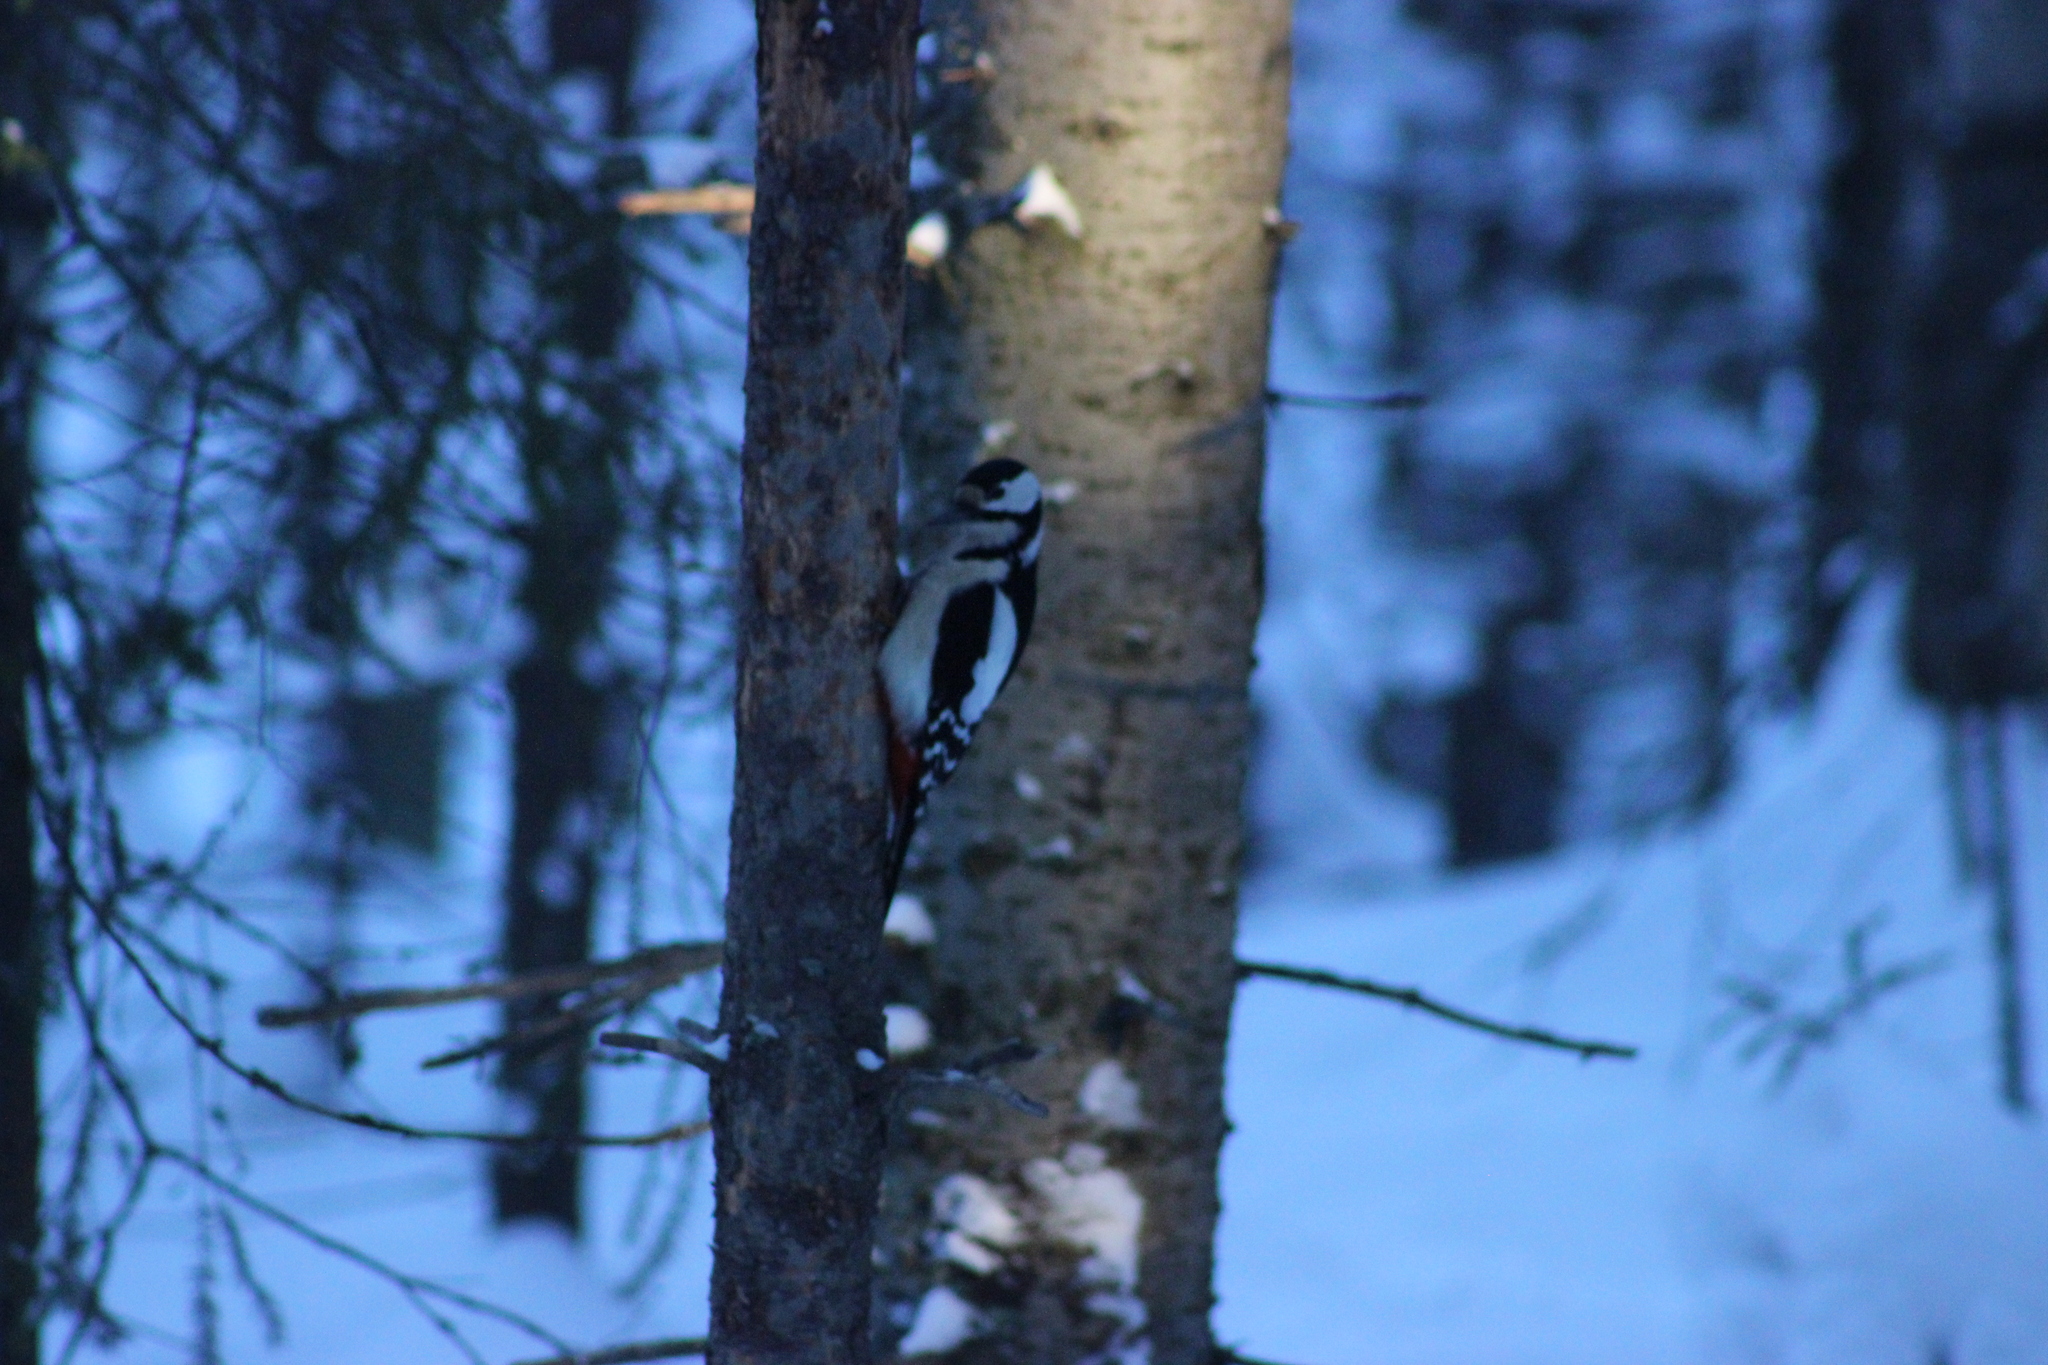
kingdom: Animalia
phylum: Chordata
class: Aves
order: Piciformes
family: Picidae
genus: Dendrocopos
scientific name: Dendrocopos major
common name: Great spotted woodpecker
